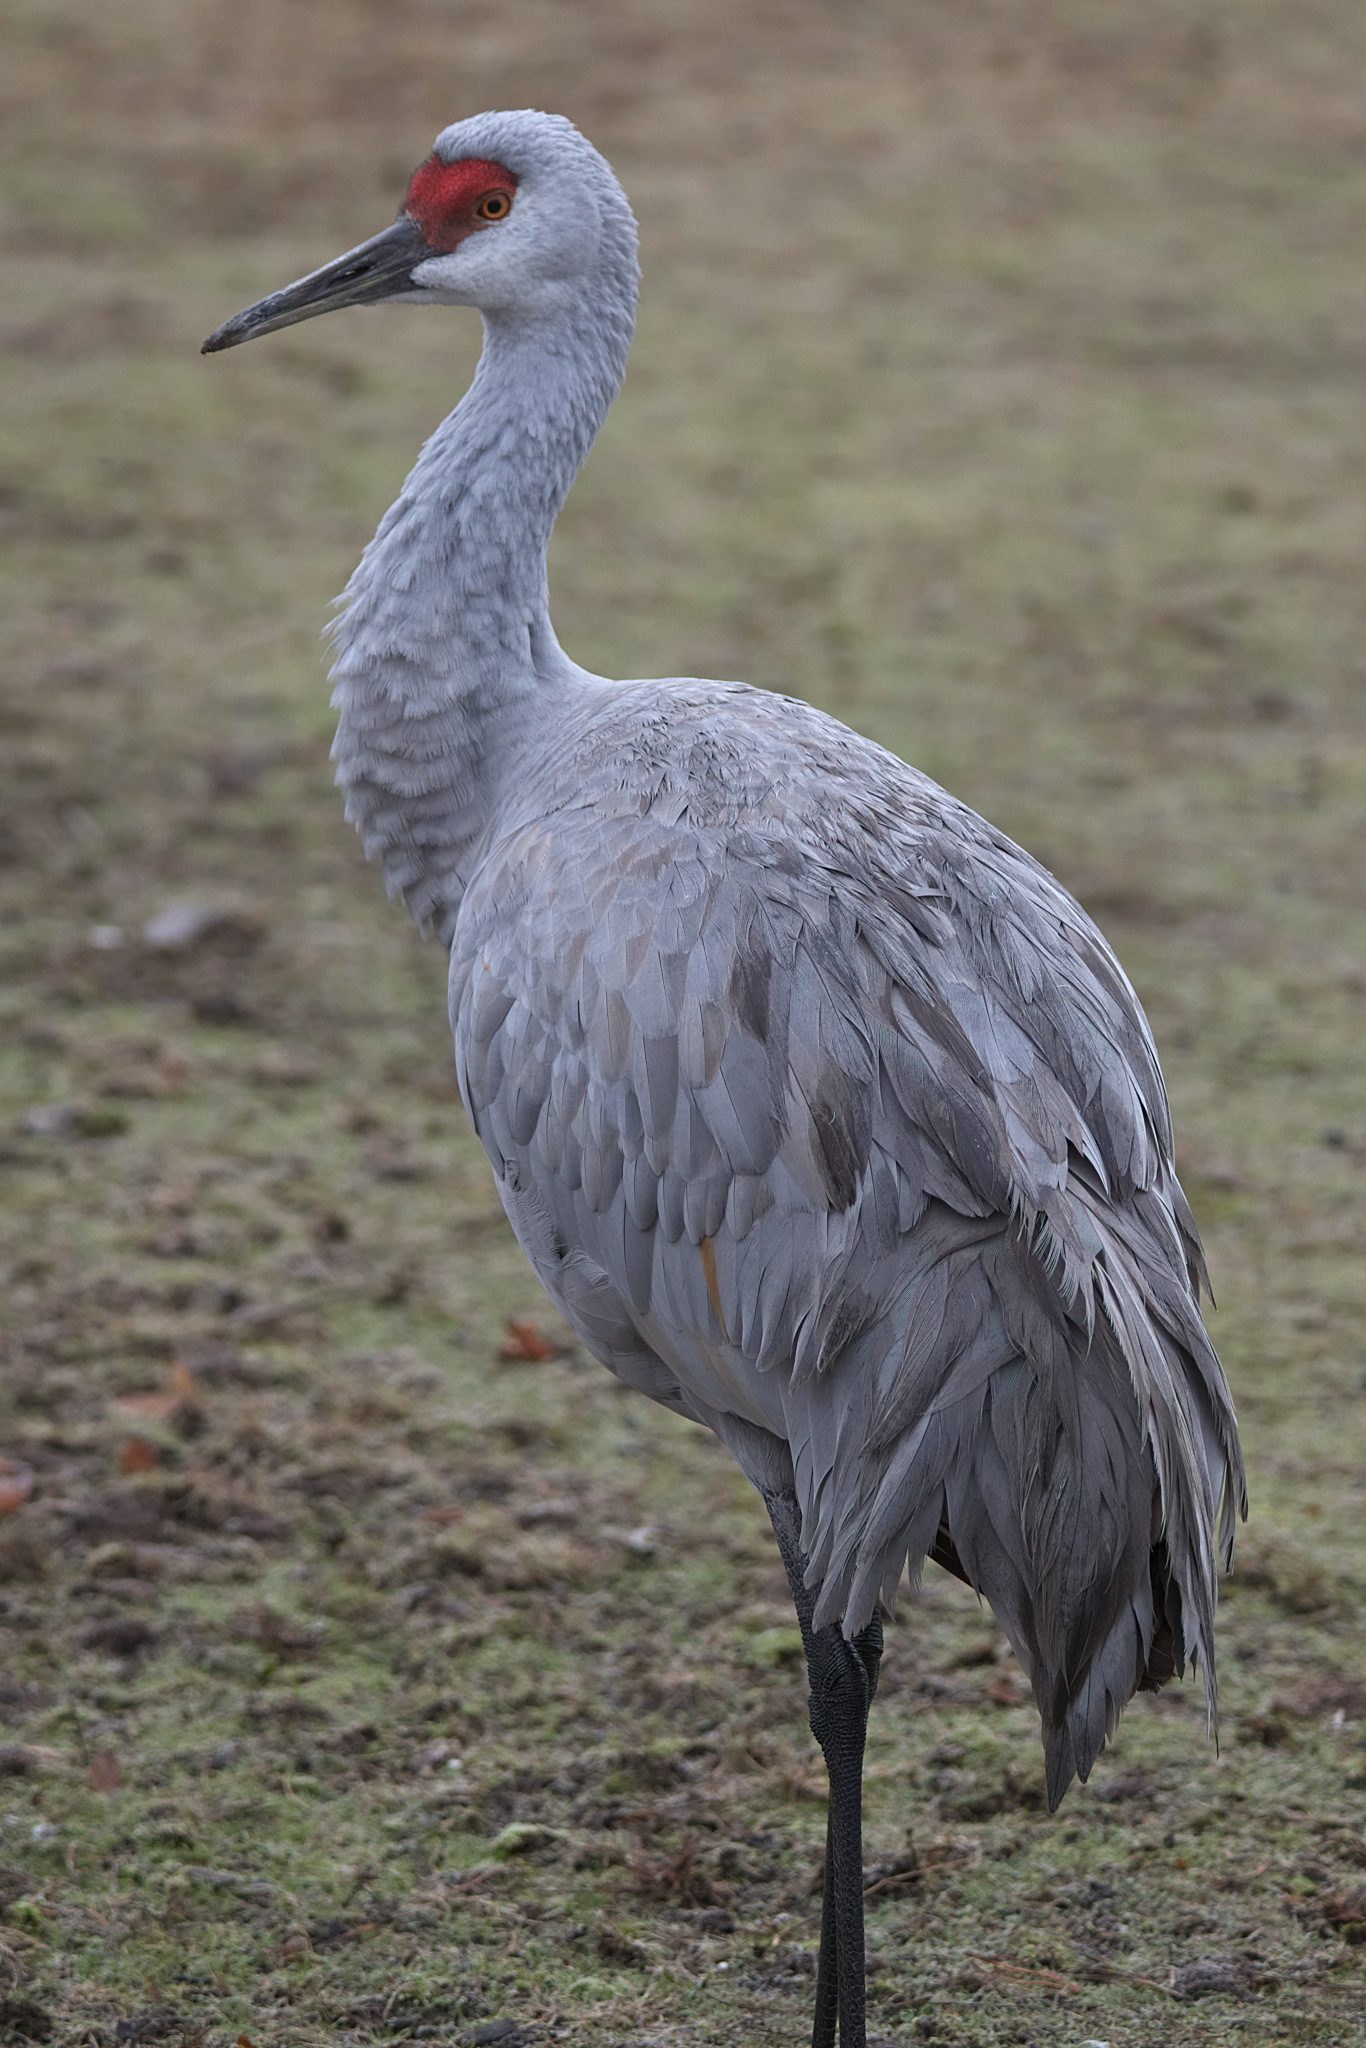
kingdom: Animalia
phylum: Chordata
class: Aves
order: Gruiformes
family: Gruidae
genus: Grus
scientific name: Grus canadensis
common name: Sandhill crane
